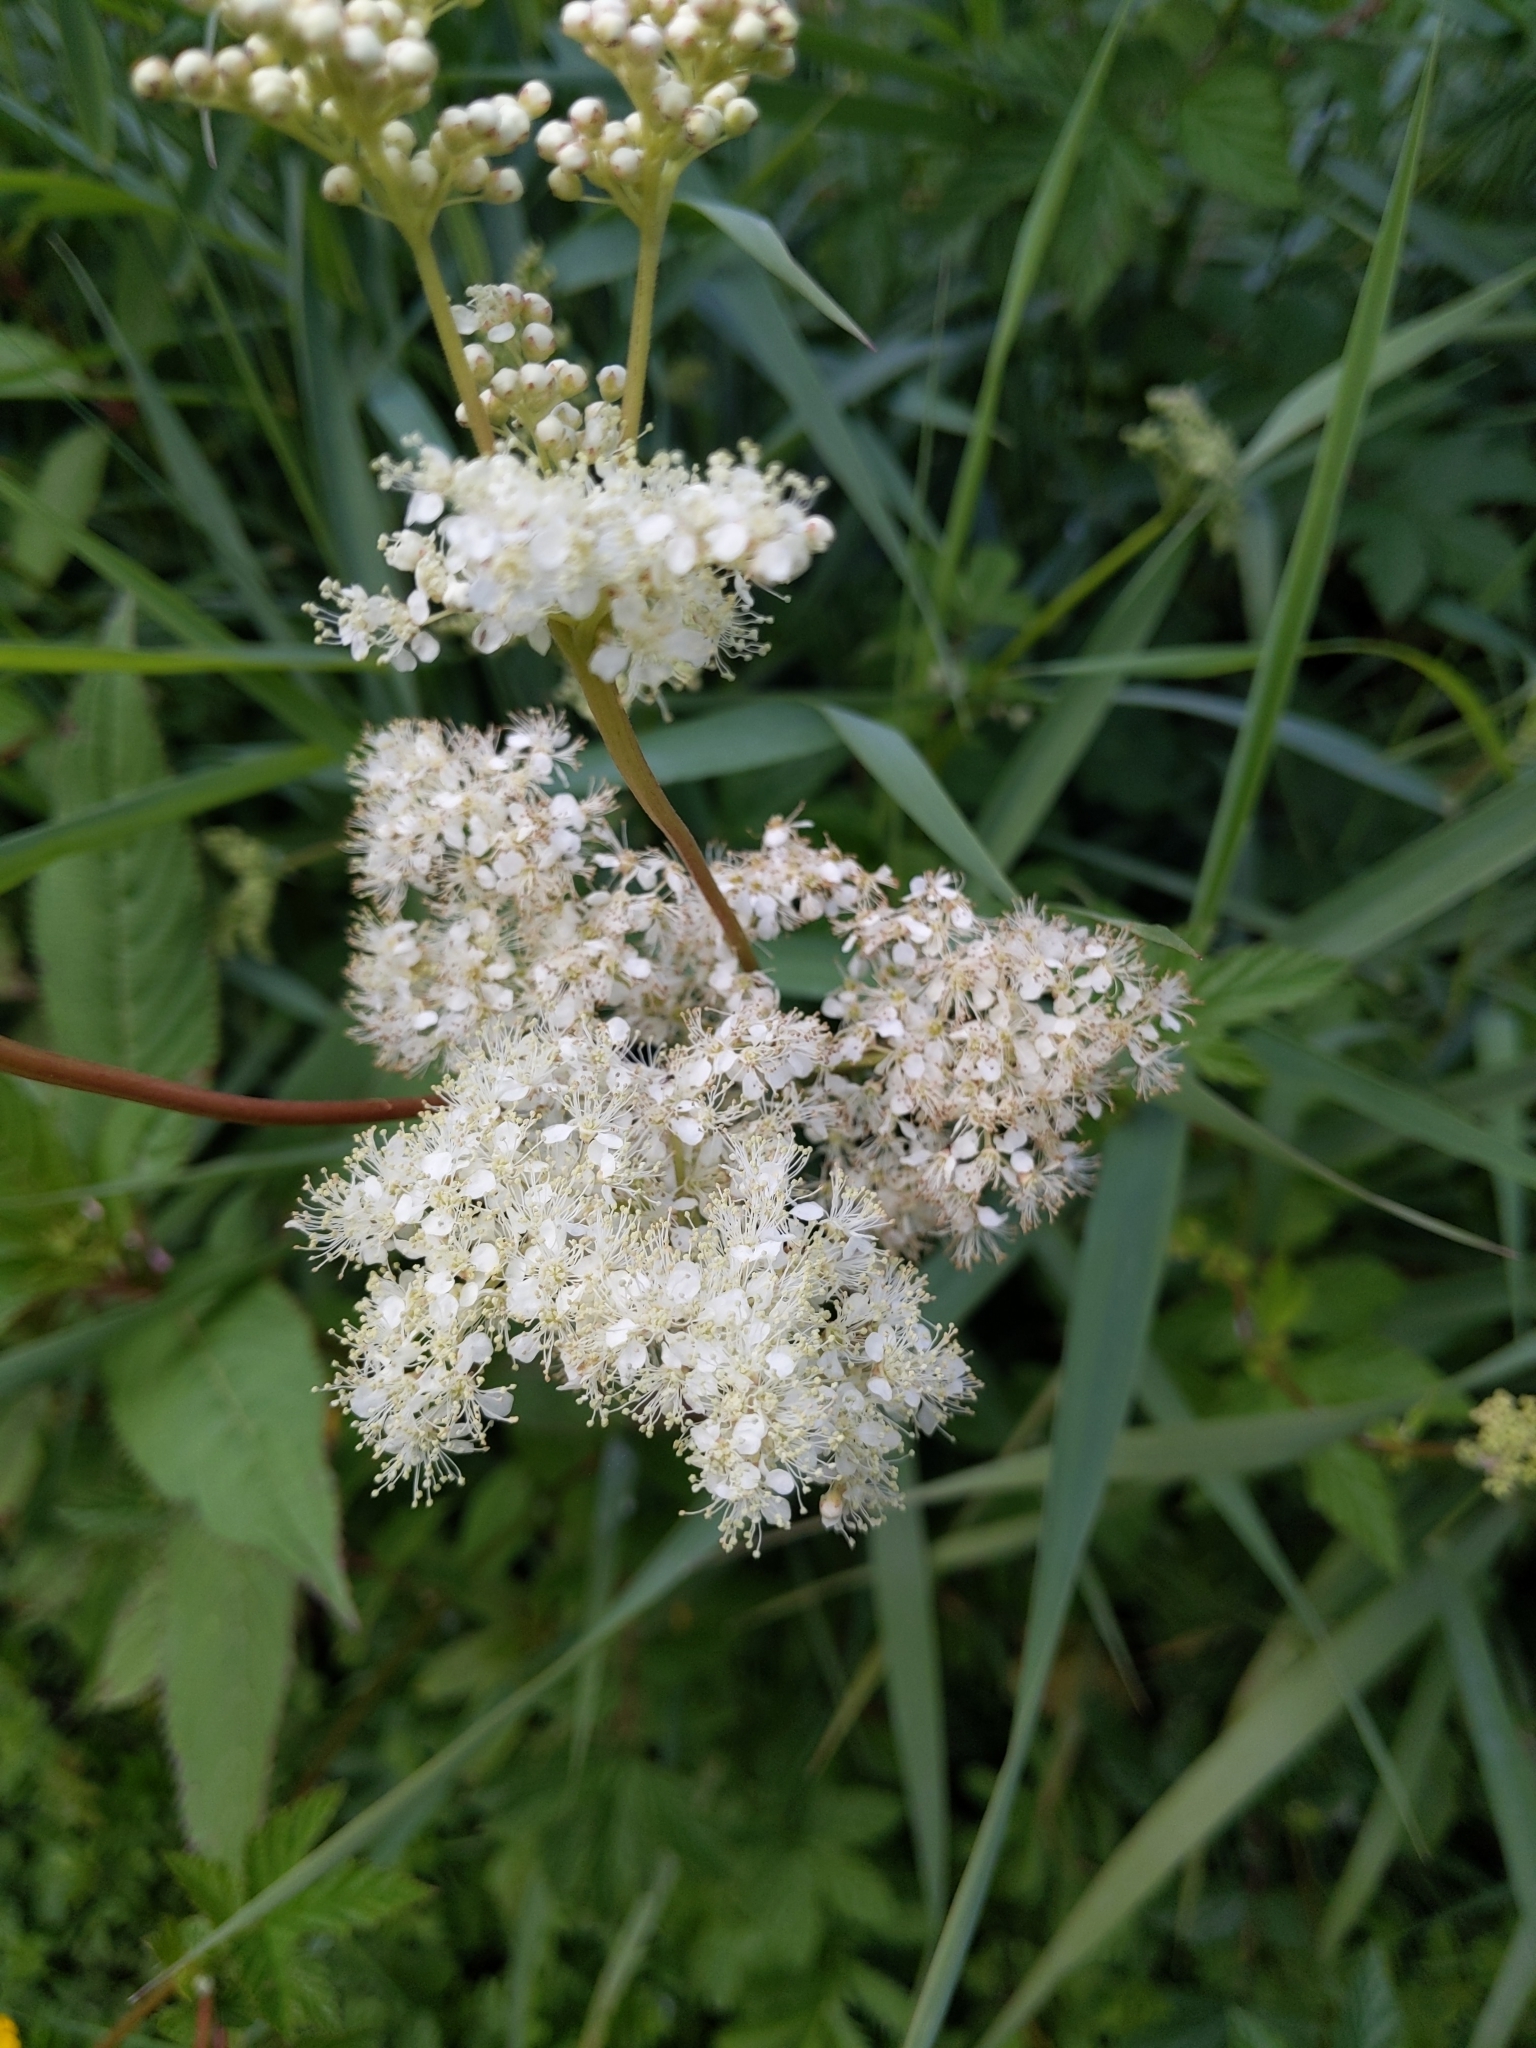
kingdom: Plantae
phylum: Tracheophyta
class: Magnoliopsida
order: Rosales
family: Rosaceae
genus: Filipendula
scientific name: Filipendula ulmaria
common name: Meadowsweet
